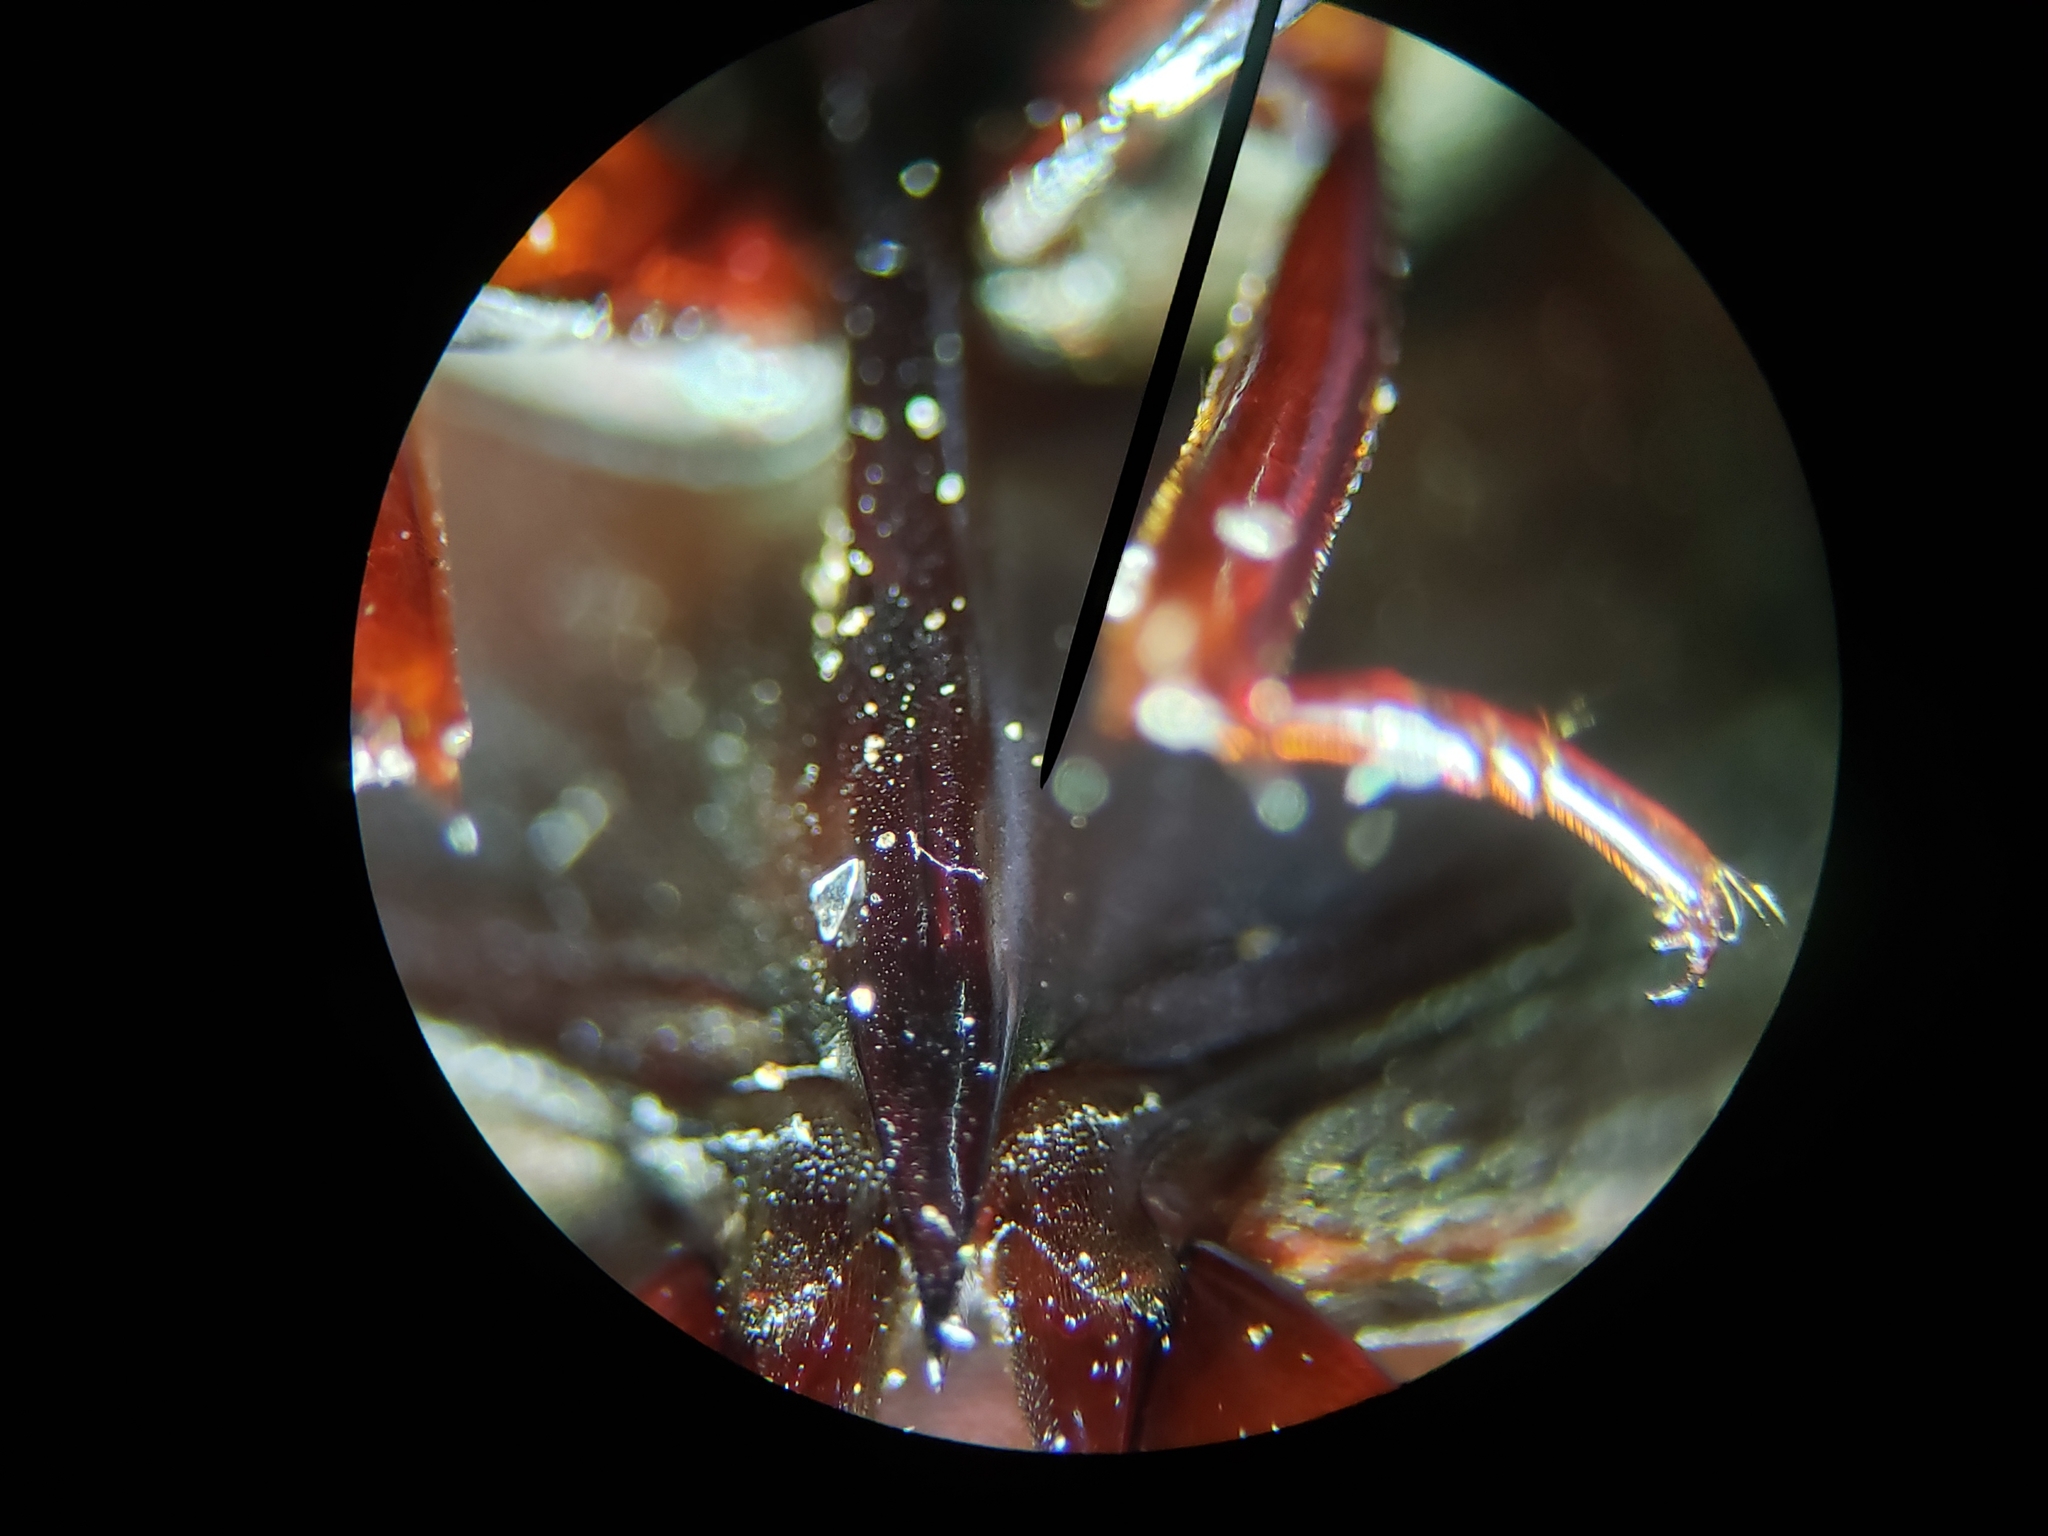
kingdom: Animalia
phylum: Arthropoda
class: Insecta
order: Coleoptera
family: Hydrophilidae
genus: Hydrochara
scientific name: Hydrochara spangleri
